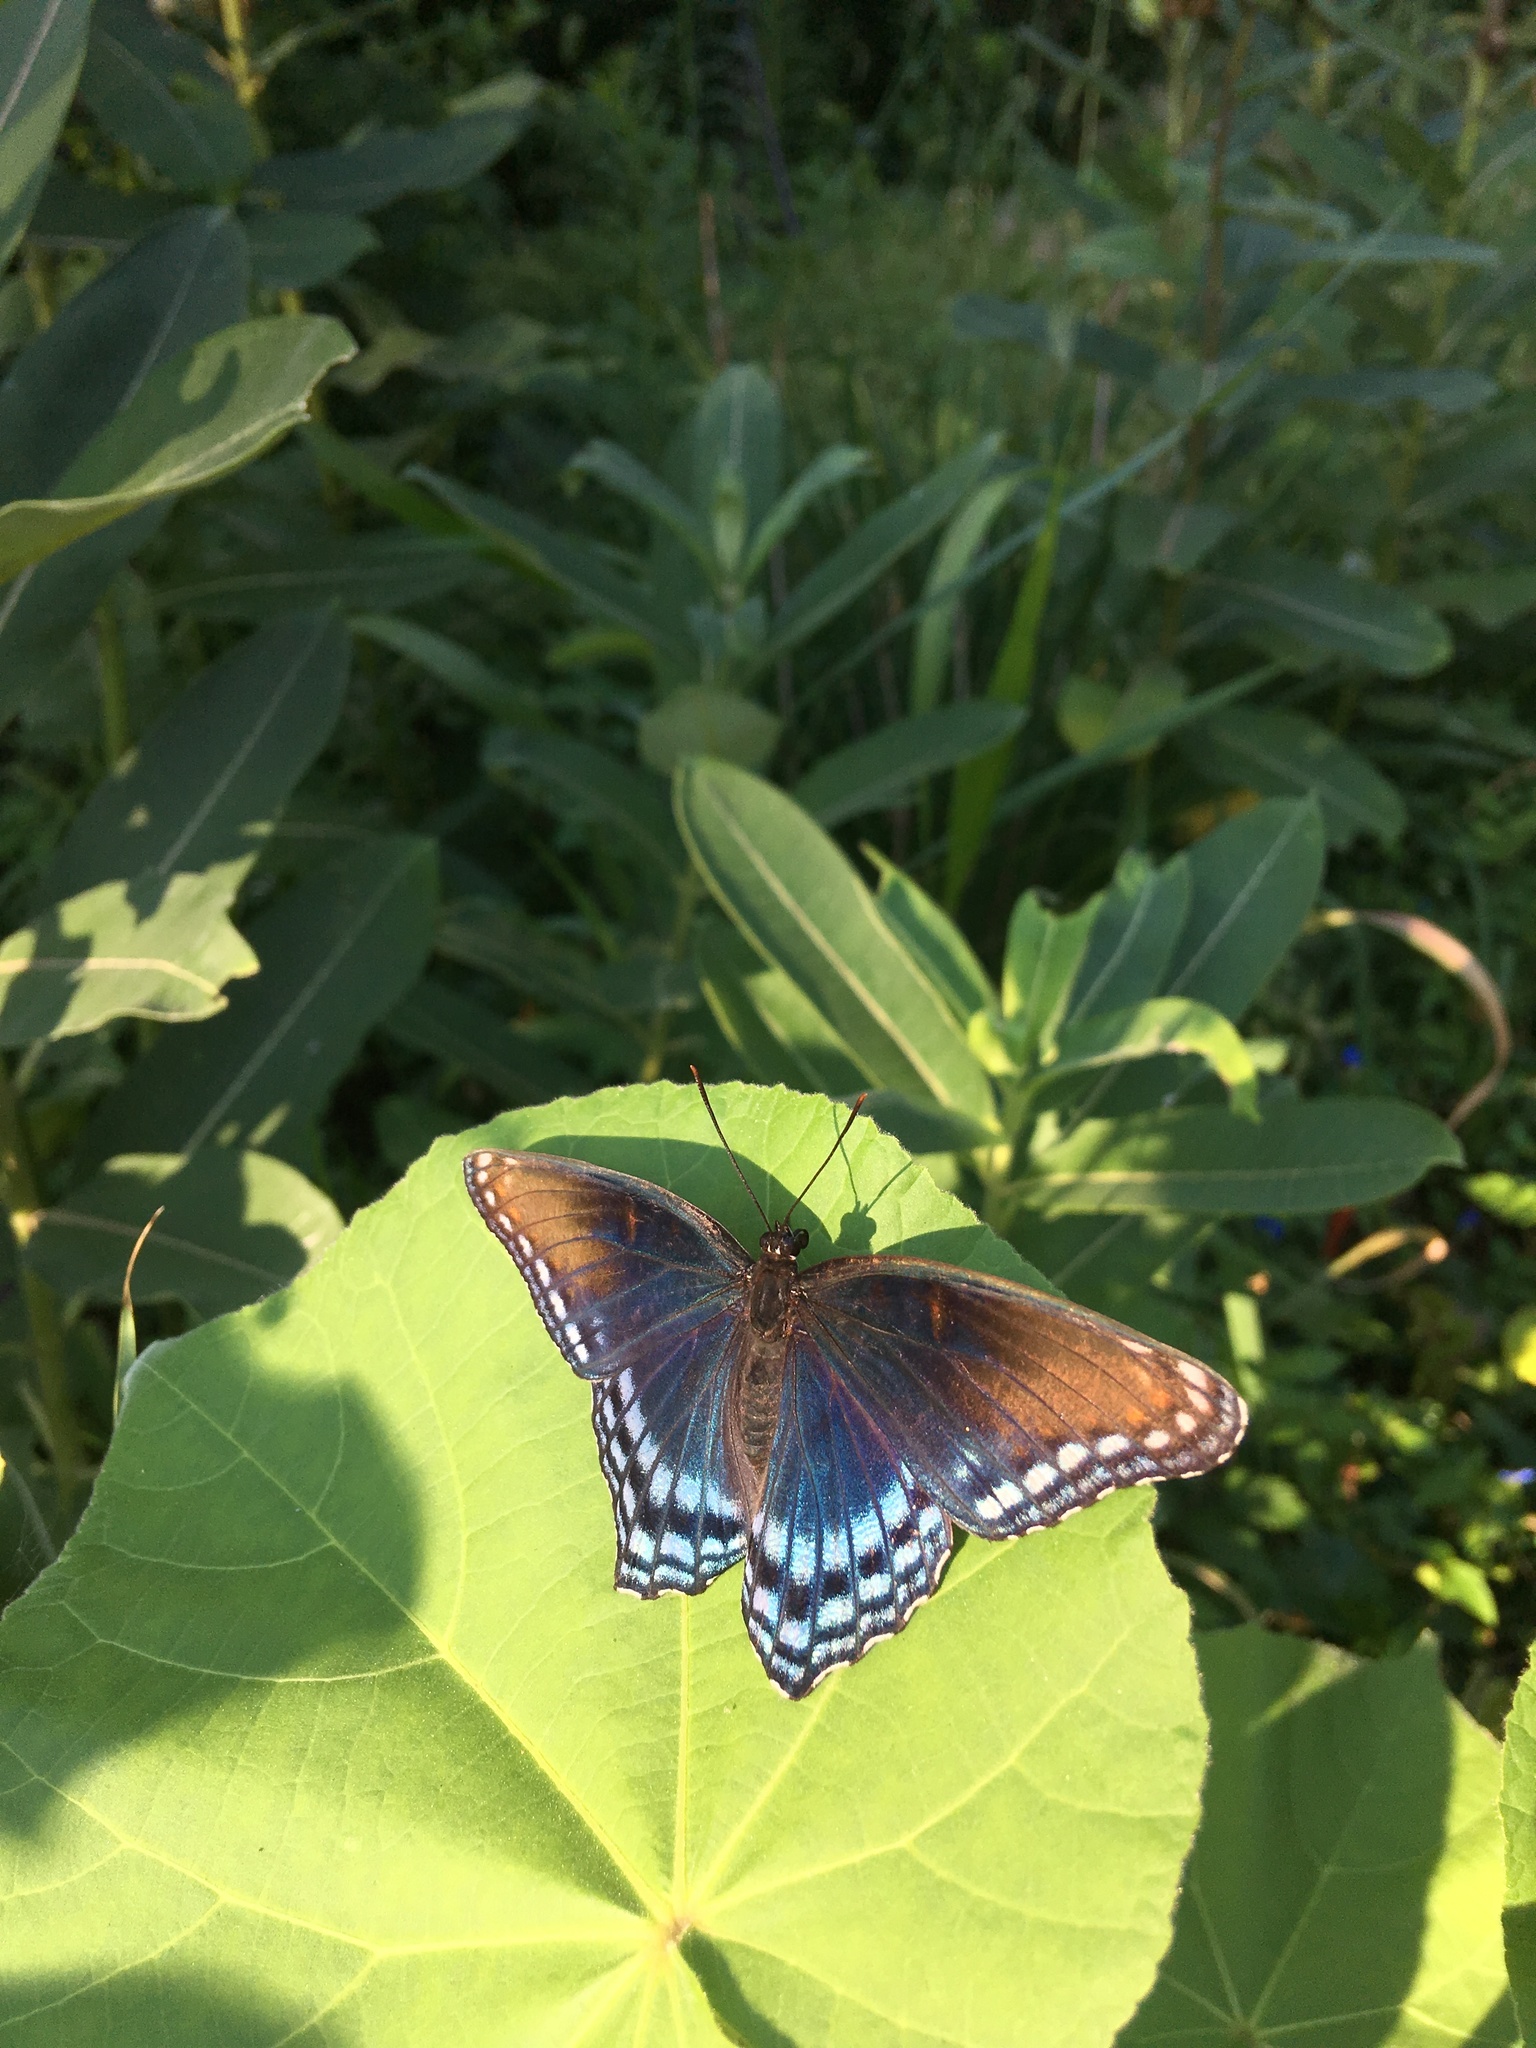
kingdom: Animalia
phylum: Arthropoda
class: Insecta
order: Lepidoptera
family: Nymphalidae
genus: Limenitis
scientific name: Limenitis astyanax
